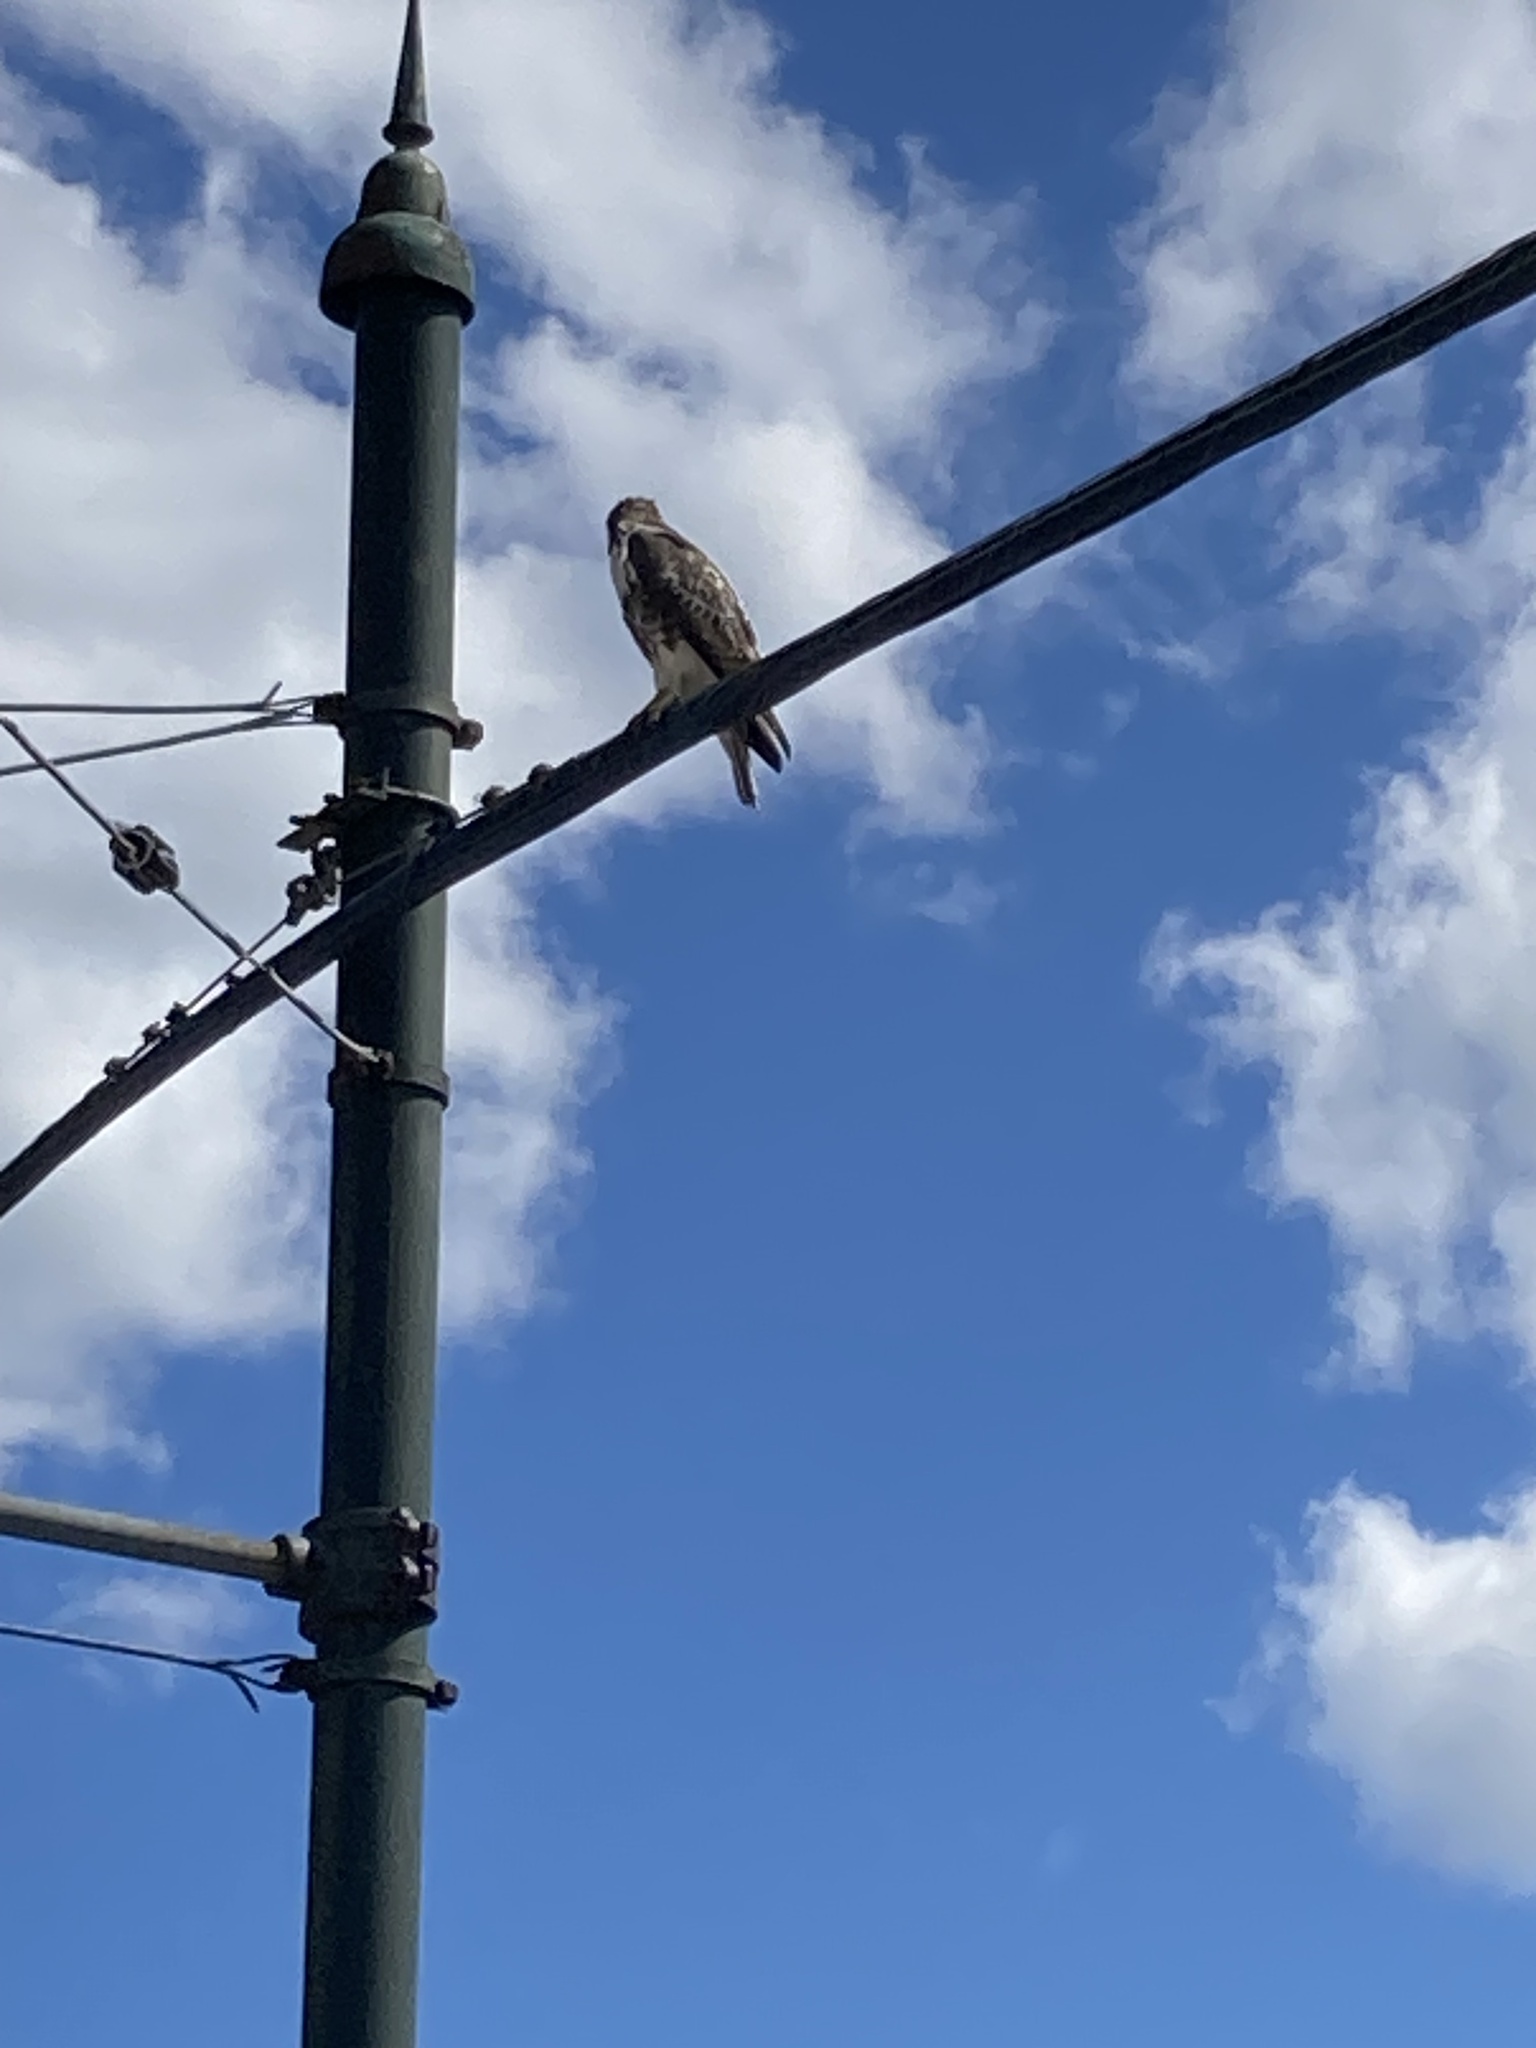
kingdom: Animalia
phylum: Chordata
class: Aves
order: Accipitriformes
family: Accipitridae
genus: Buteo
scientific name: Buteo jamaicensis
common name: Red-tailed hawk
